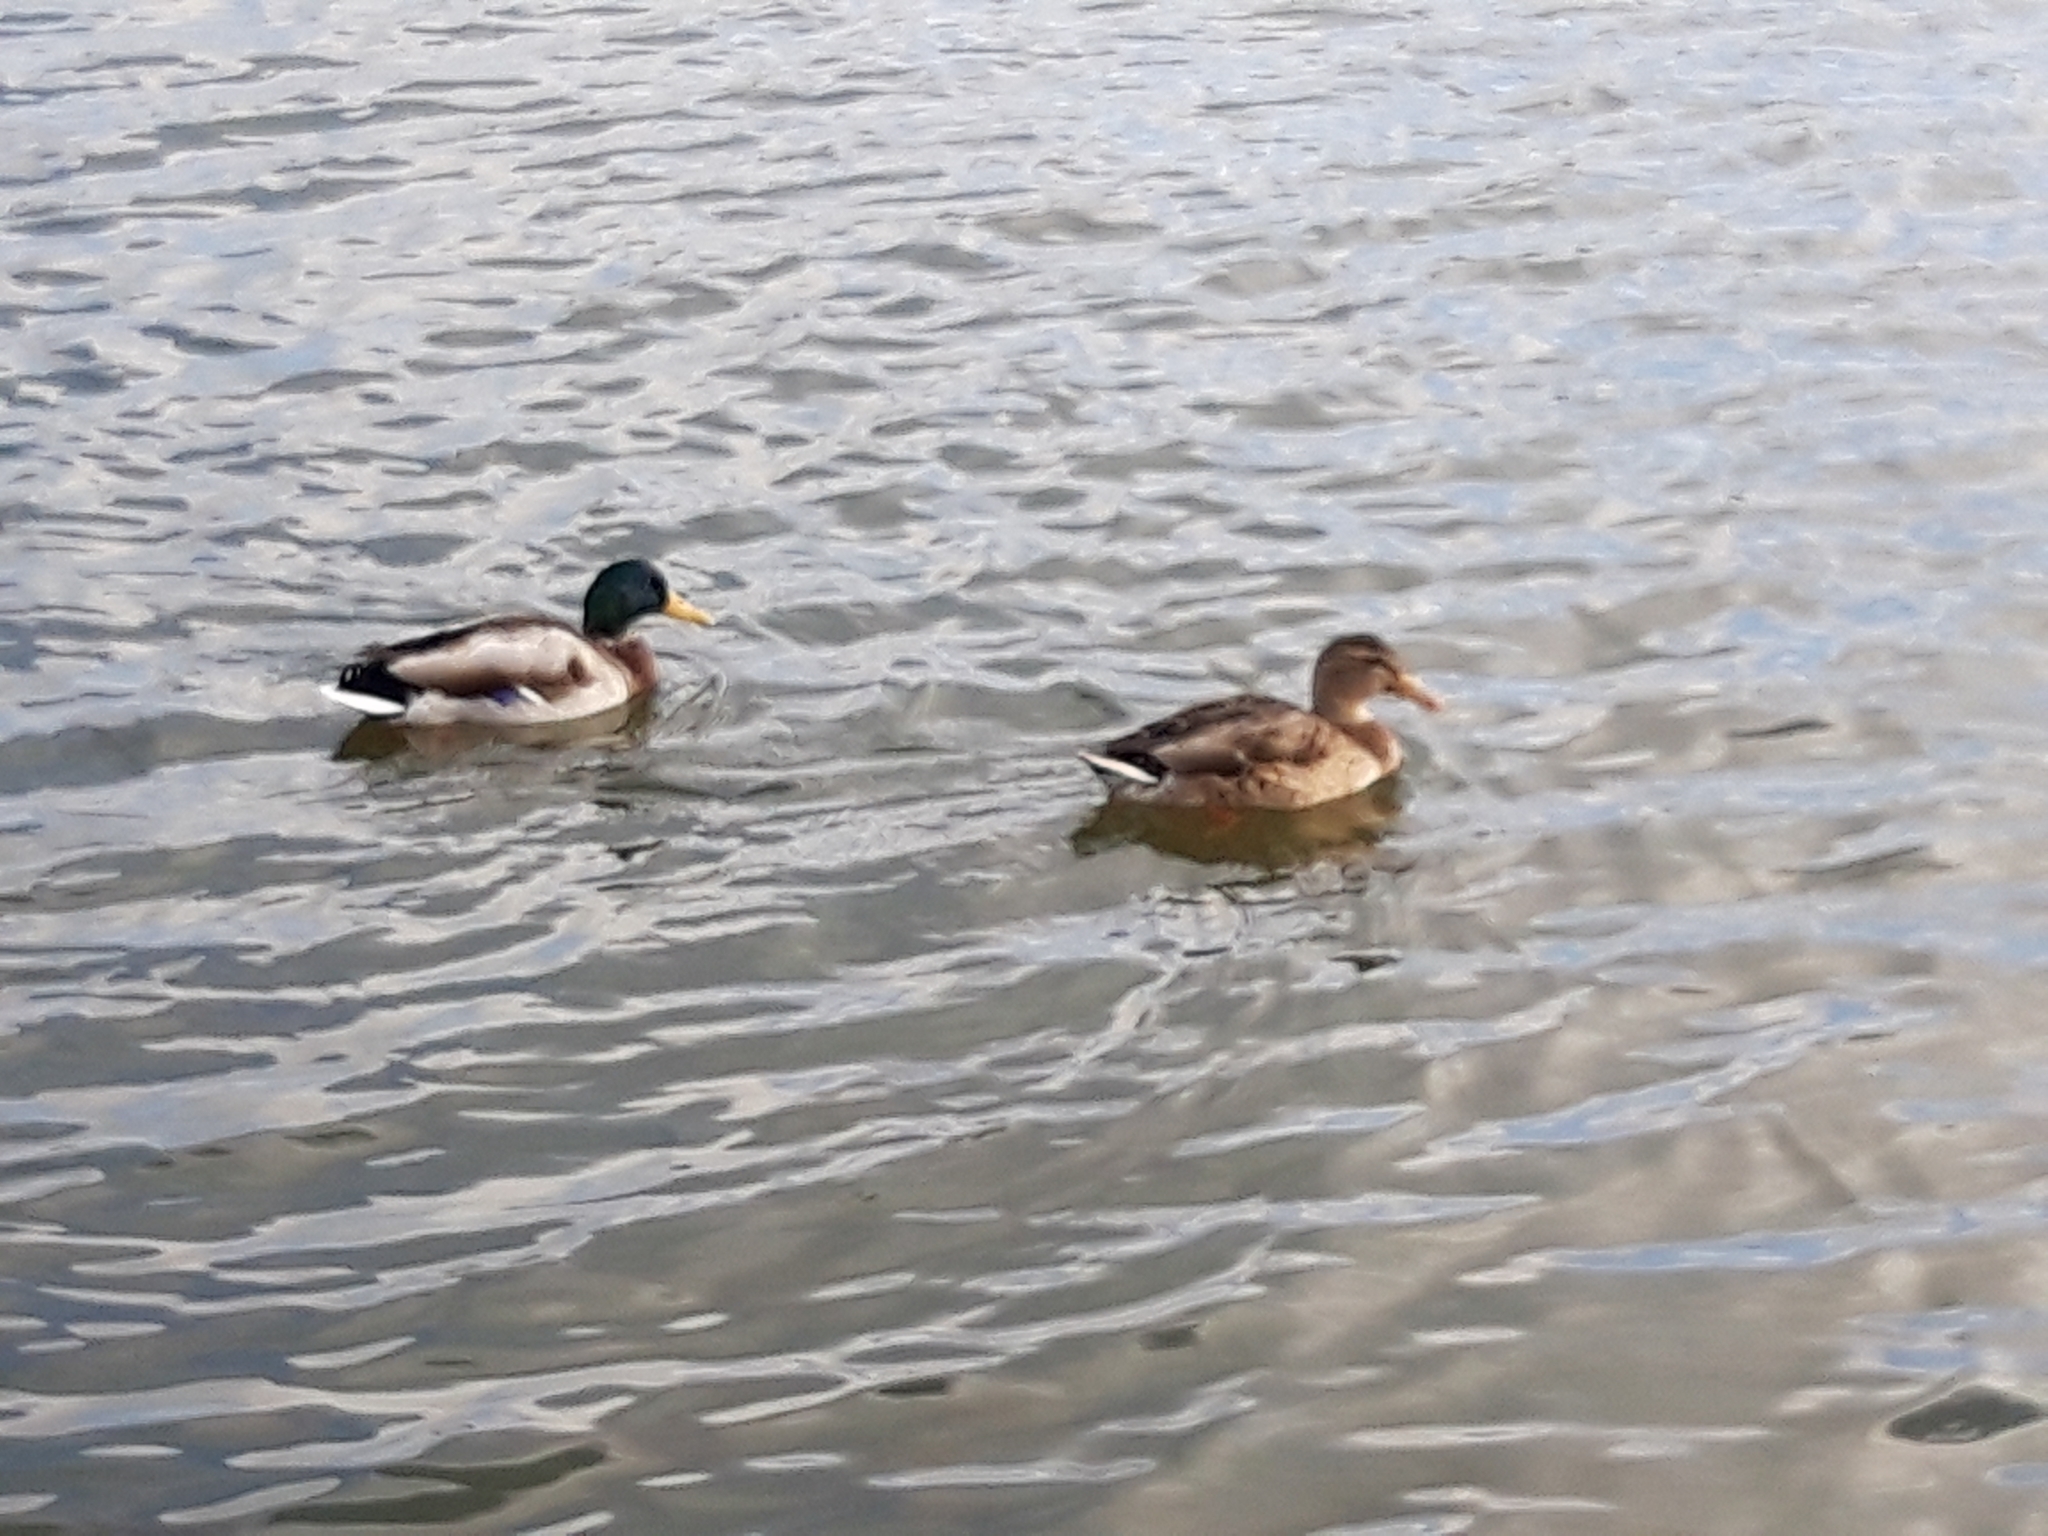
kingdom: Animalia
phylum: Chordata
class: Aves
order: Anseriformes
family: Anatidae
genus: Anas
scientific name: Anas platyrhynchos
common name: Mallard
